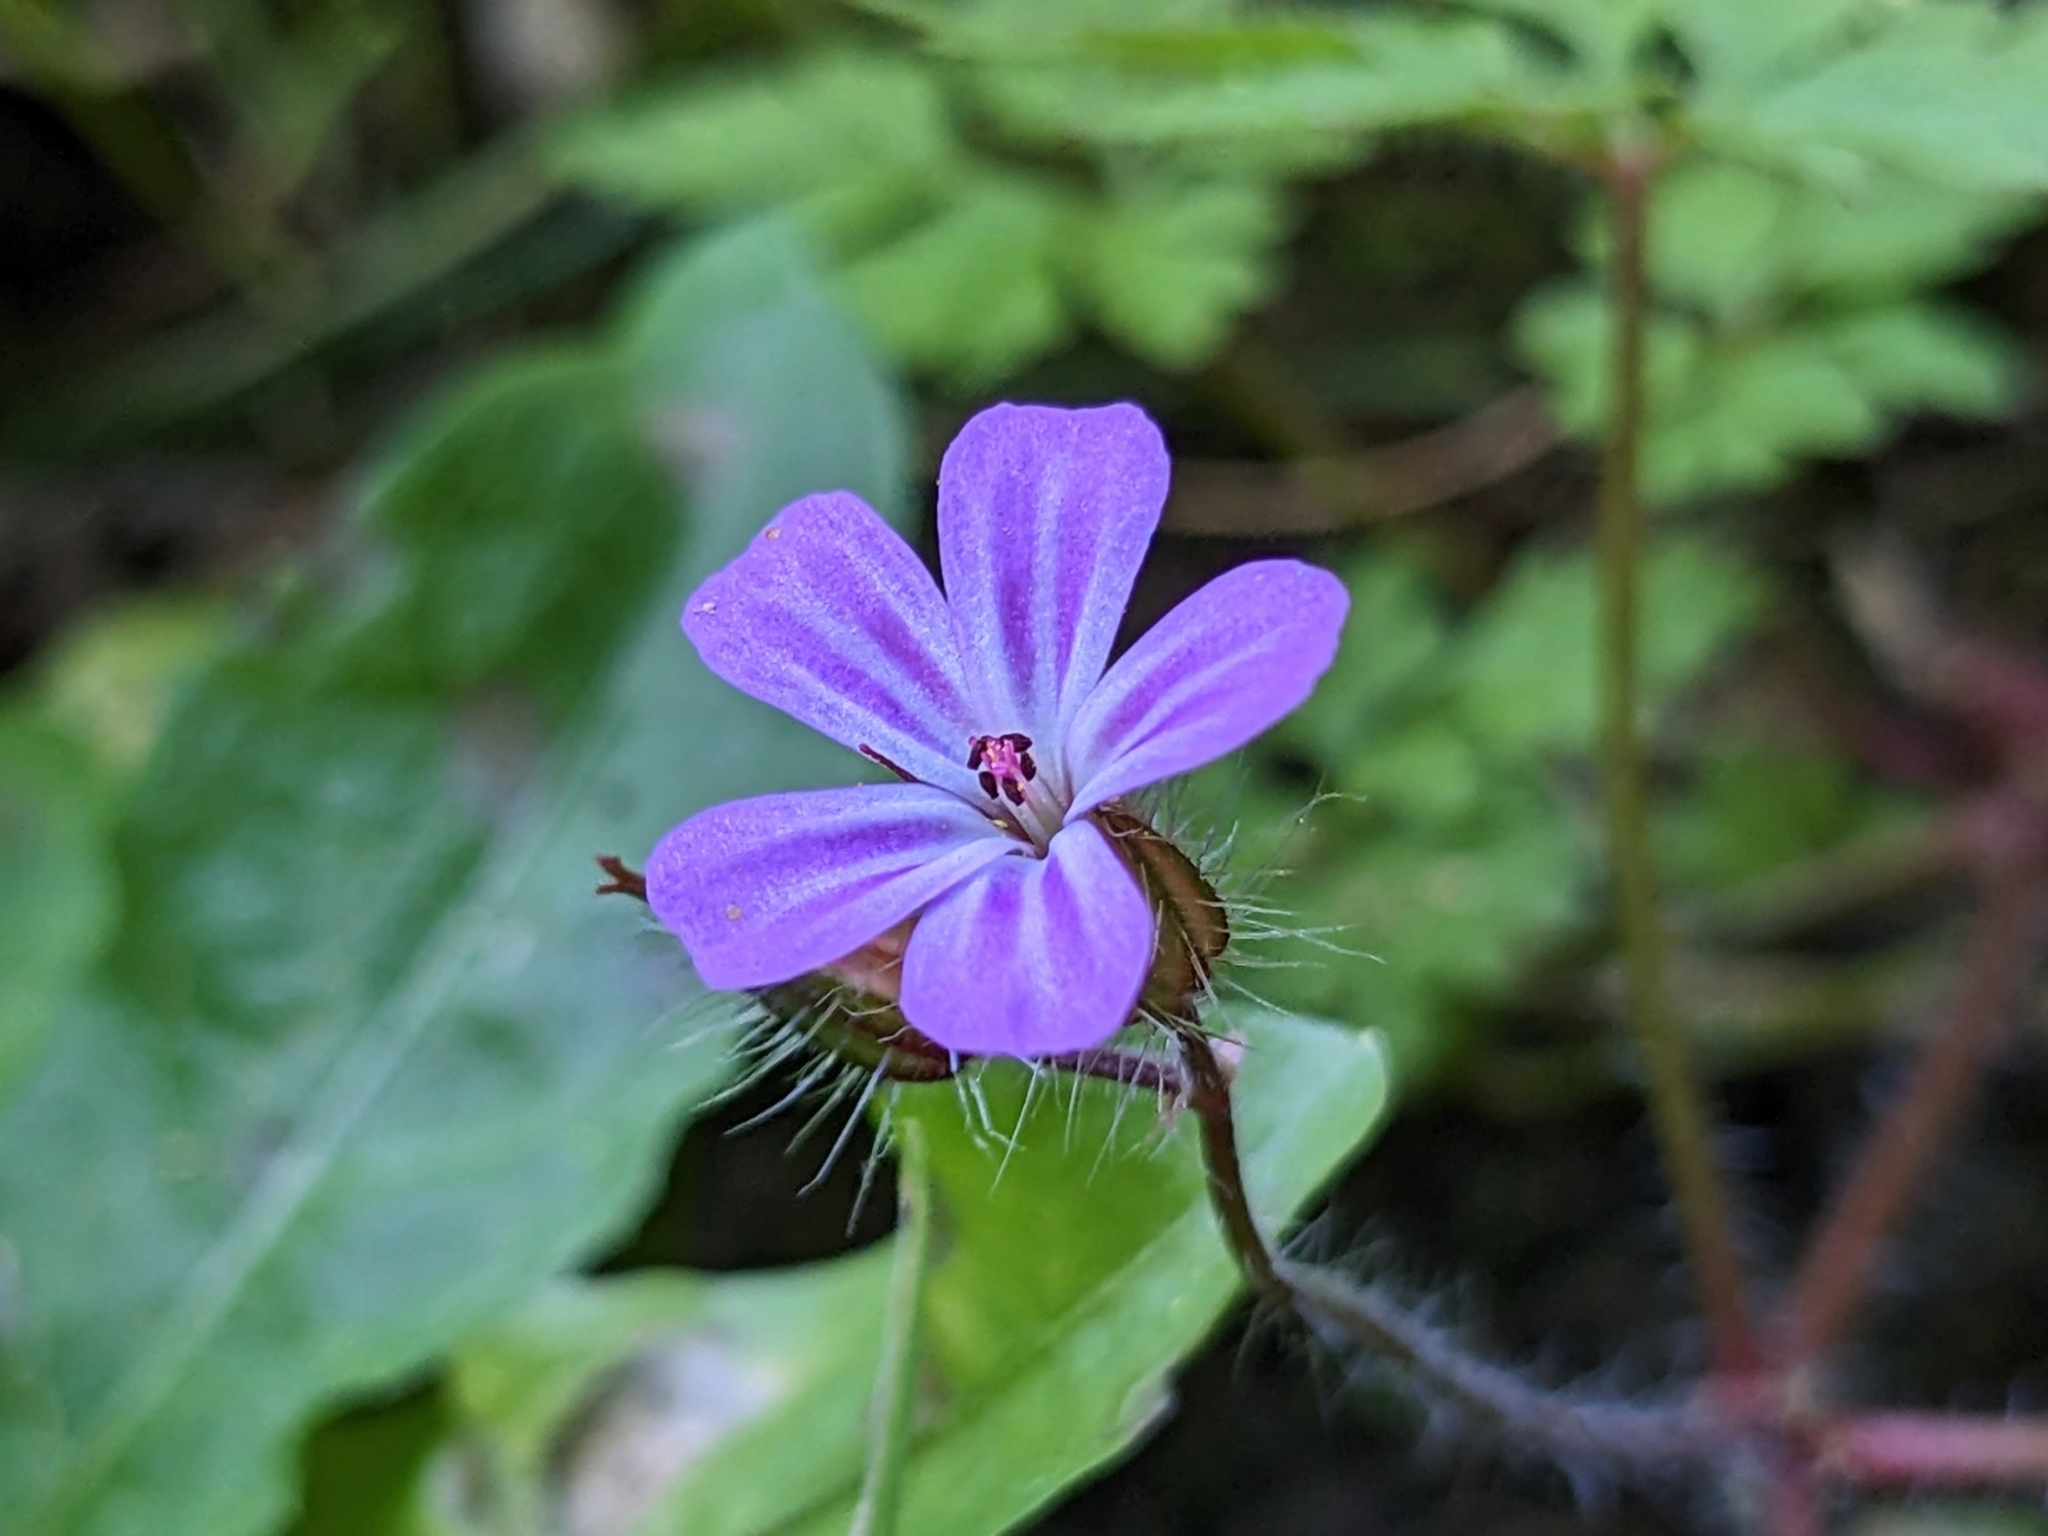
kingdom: Plantae
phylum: Tracheophyta
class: Magnoliopsida
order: Geraniales
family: Geraniaceae
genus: Geranium
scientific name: Geranium robertianum
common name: Herb-robert
